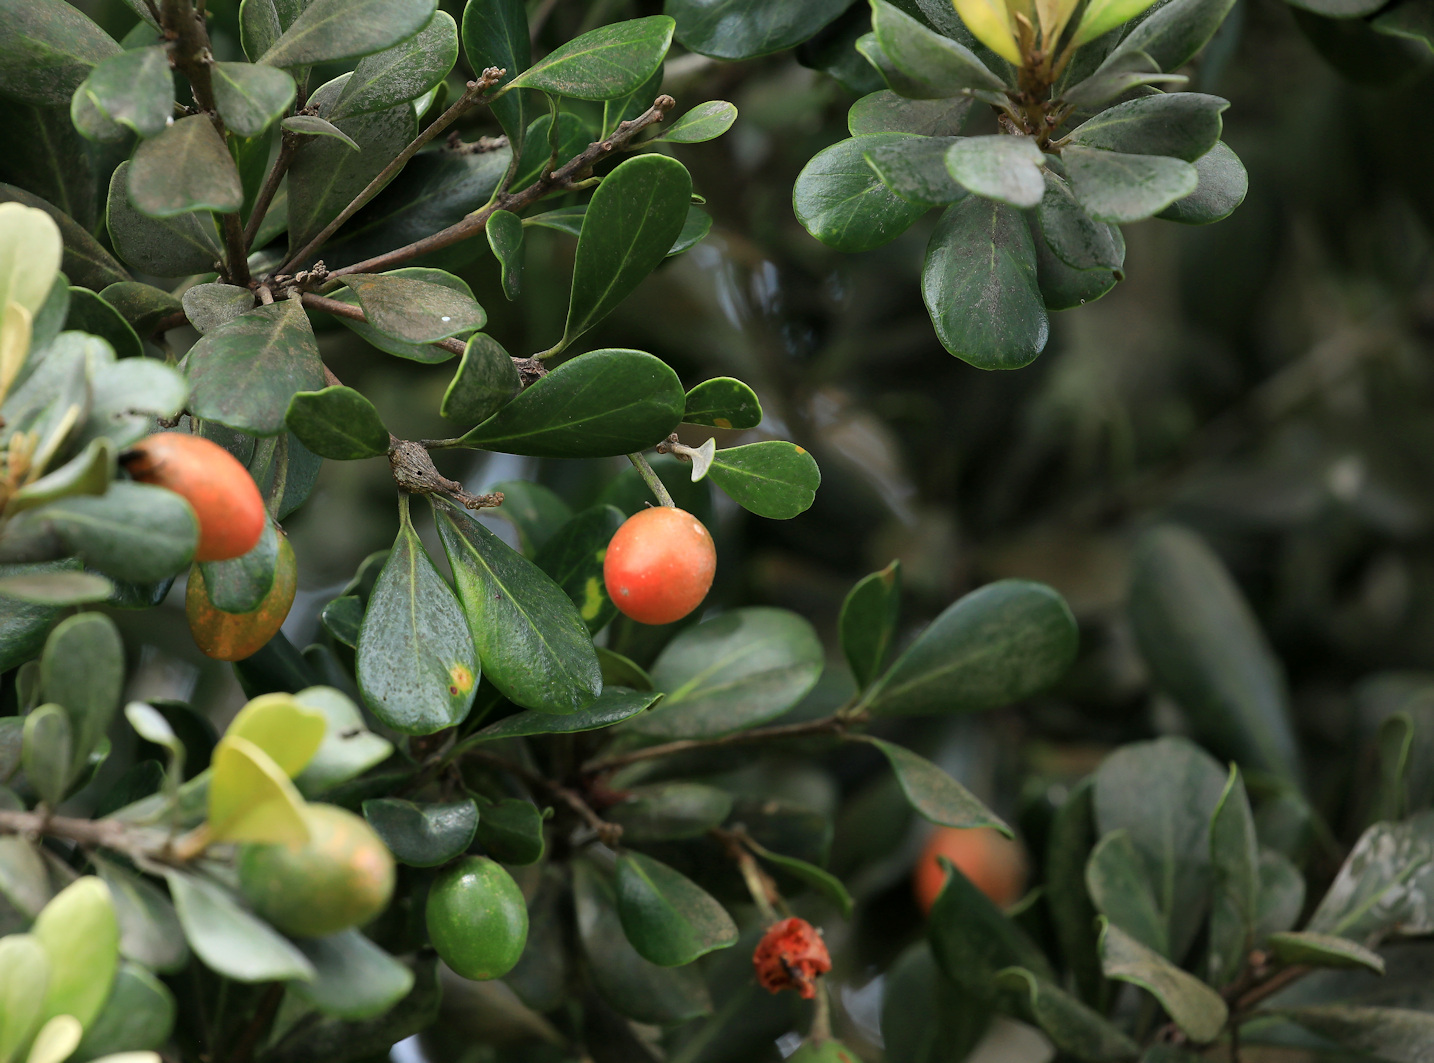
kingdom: Plantae
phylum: Tracheophyta
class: Magnoliopsida
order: Ericales
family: Sapotaceae
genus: Mimusops
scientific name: Mimusops caffra
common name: Coastal red milkwood
